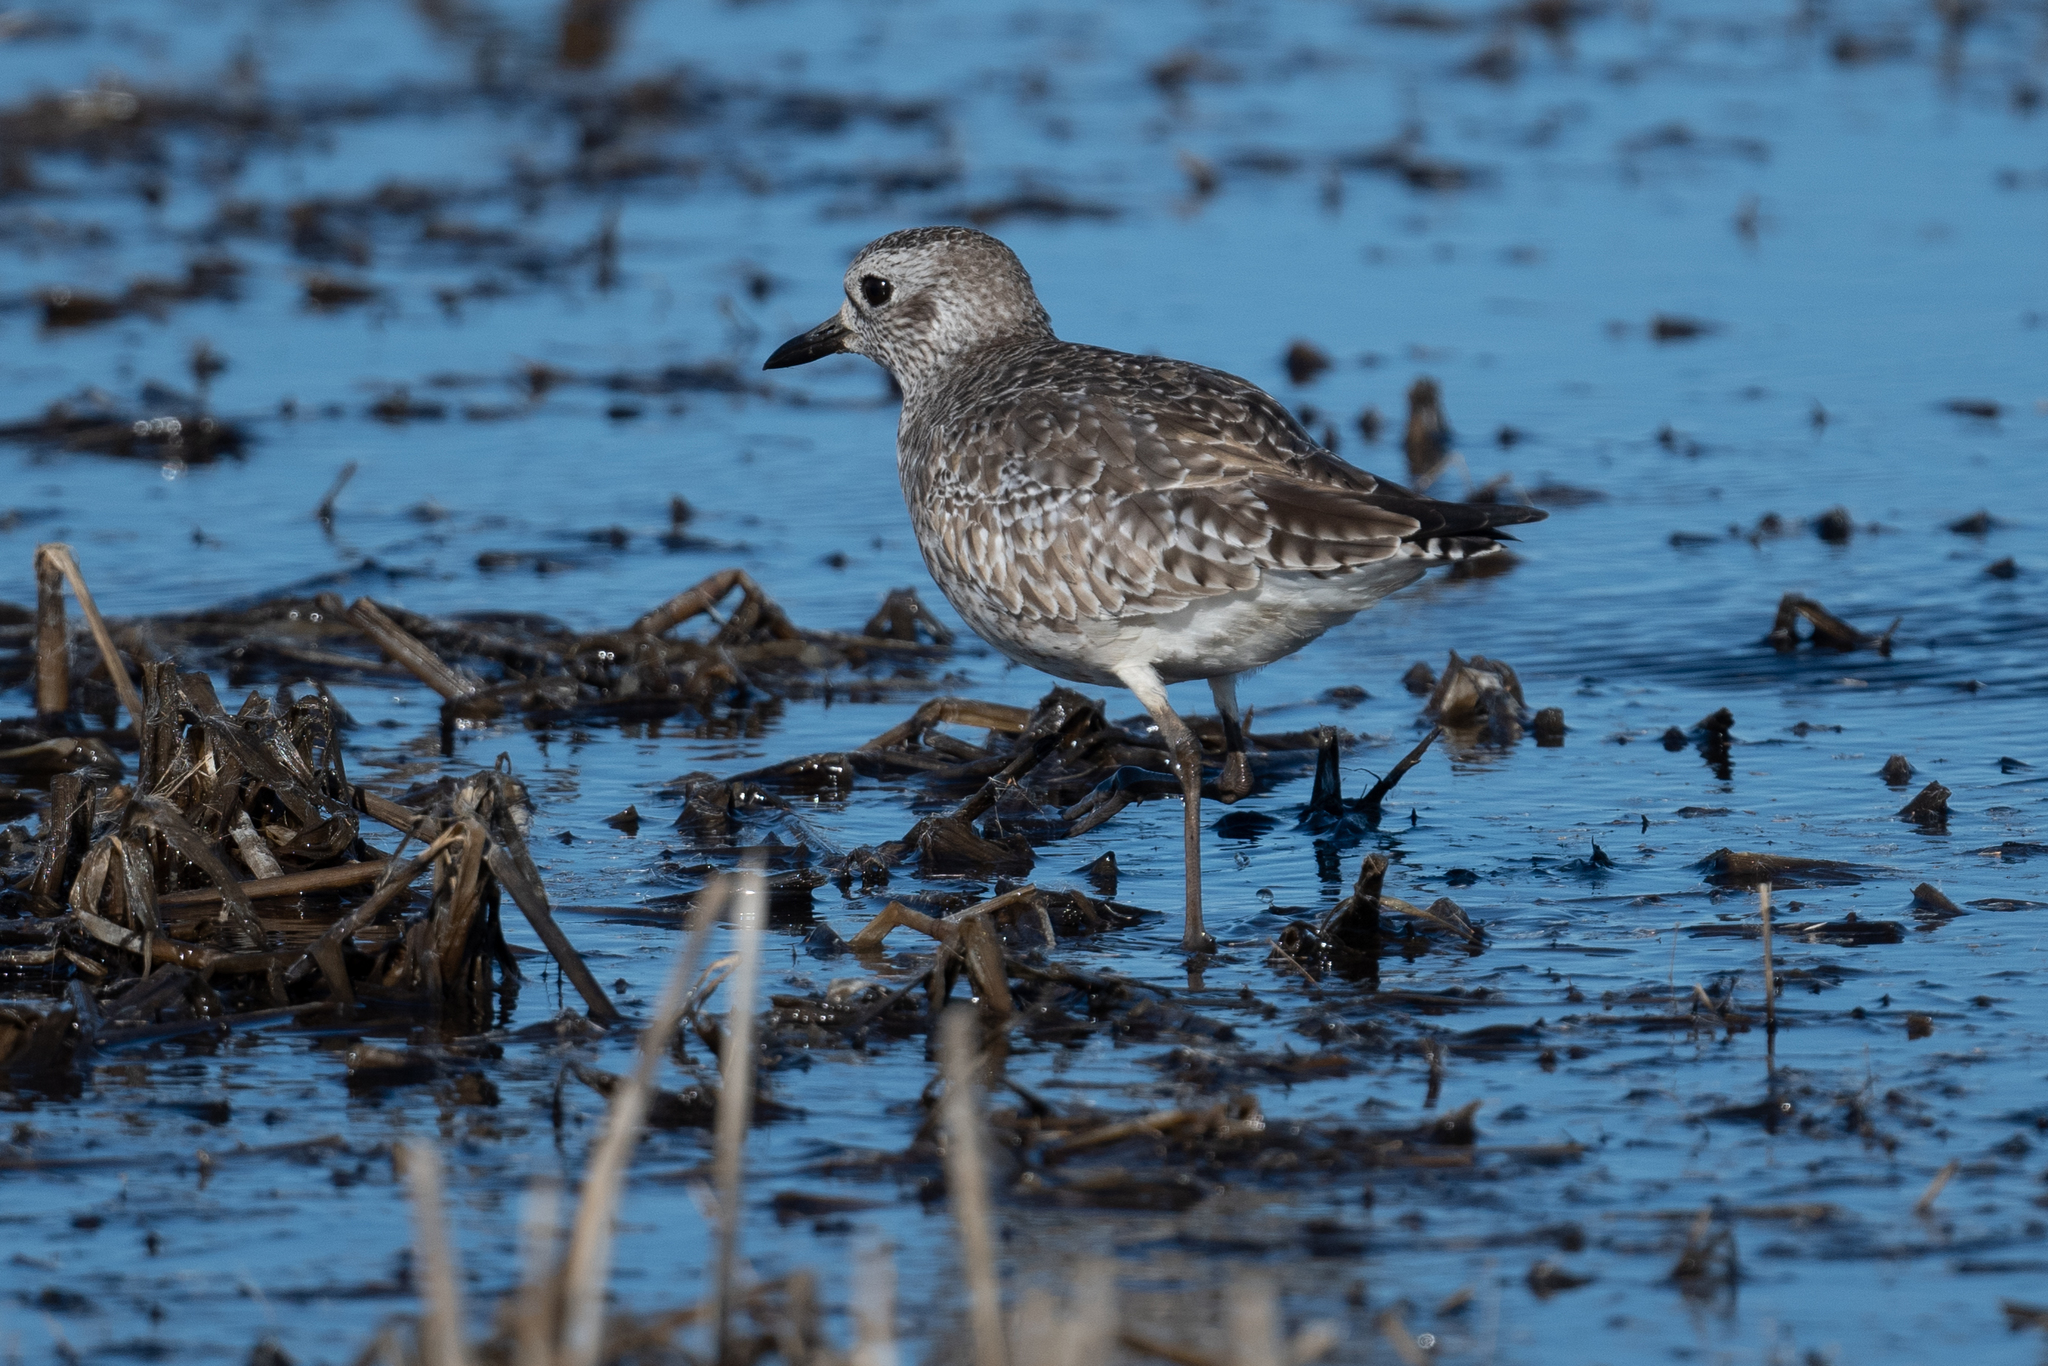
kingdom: Animalia
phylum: Chordata
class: Aves
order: Charadriiformes
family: Charadriidae
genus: Pluvialis
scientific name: Pluvialis squatarola
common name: Grey plover
